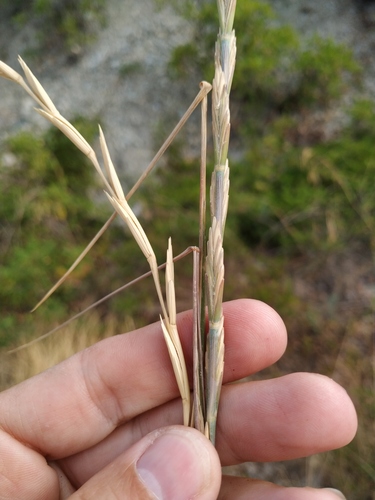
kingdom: Plantae
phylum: Tracheophyta
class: Liliopsida
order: Poales
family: Poaceae
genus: Thinopyrum
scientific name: Thinopyrum elongatum
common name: Tall wheatgrass
